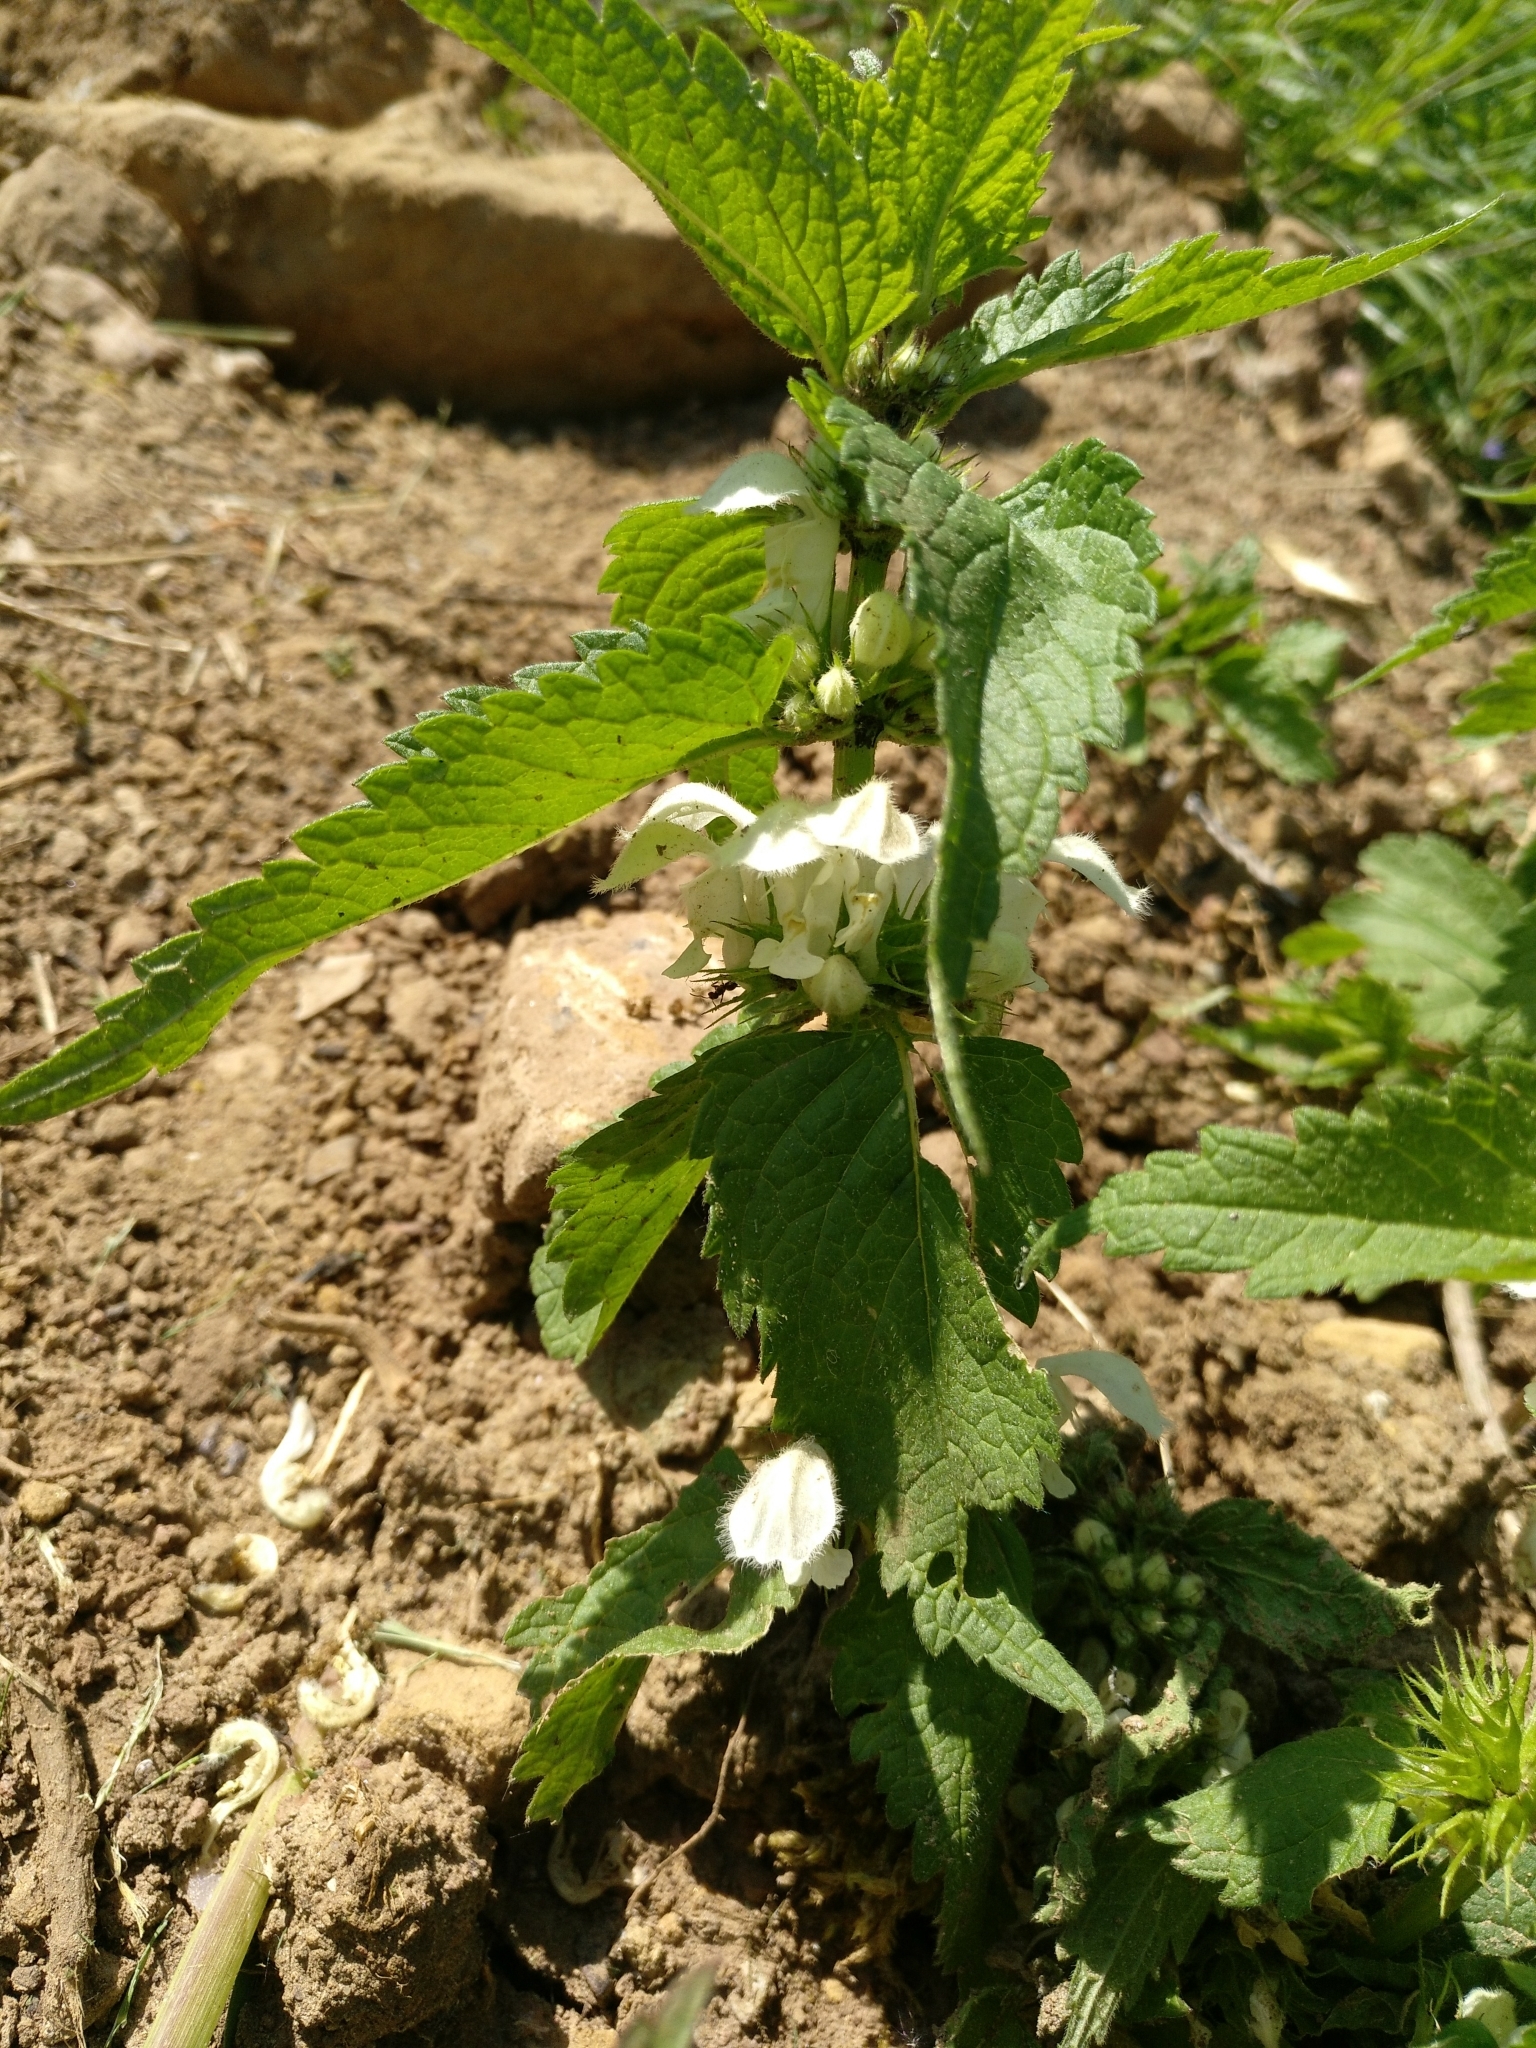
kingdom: Plantae
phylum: Tracheophyta
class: Magnoliopsida
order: Lamiales
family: Lamiaceae
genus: Lamium
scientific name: Lamium album
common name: White dead-nettle
